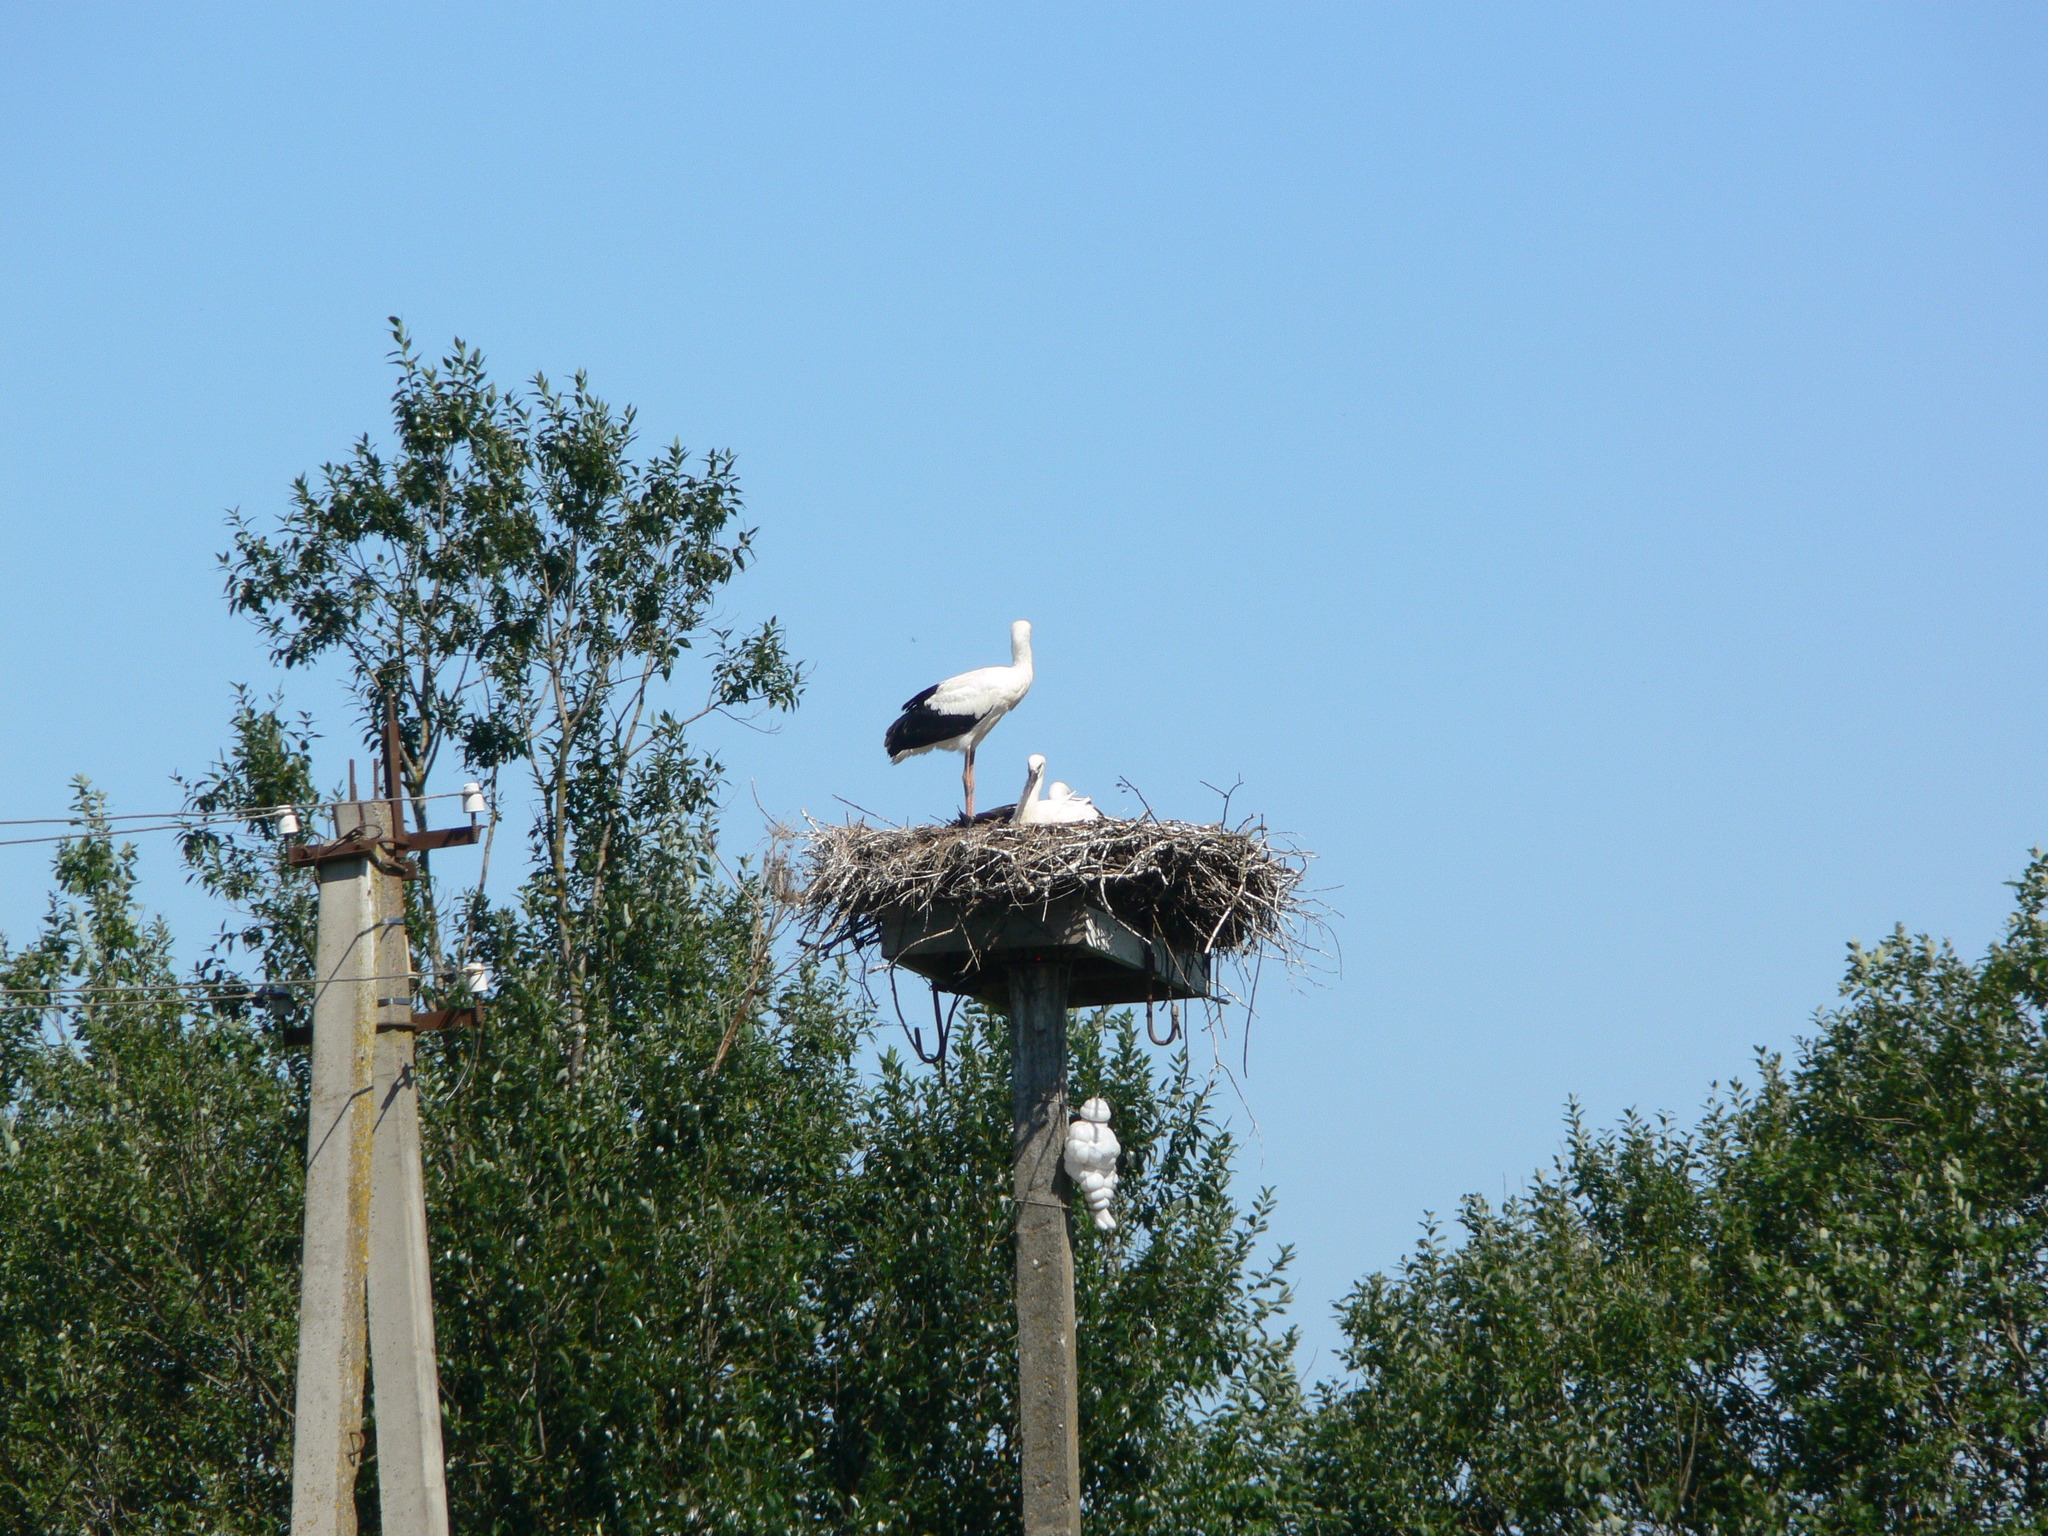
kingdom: Animalia
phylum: Chordata
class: Aves
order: Ciconiiformes
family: Ciconiidae
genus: Ciconia
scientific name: Ciconia ciconia
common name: White stork
